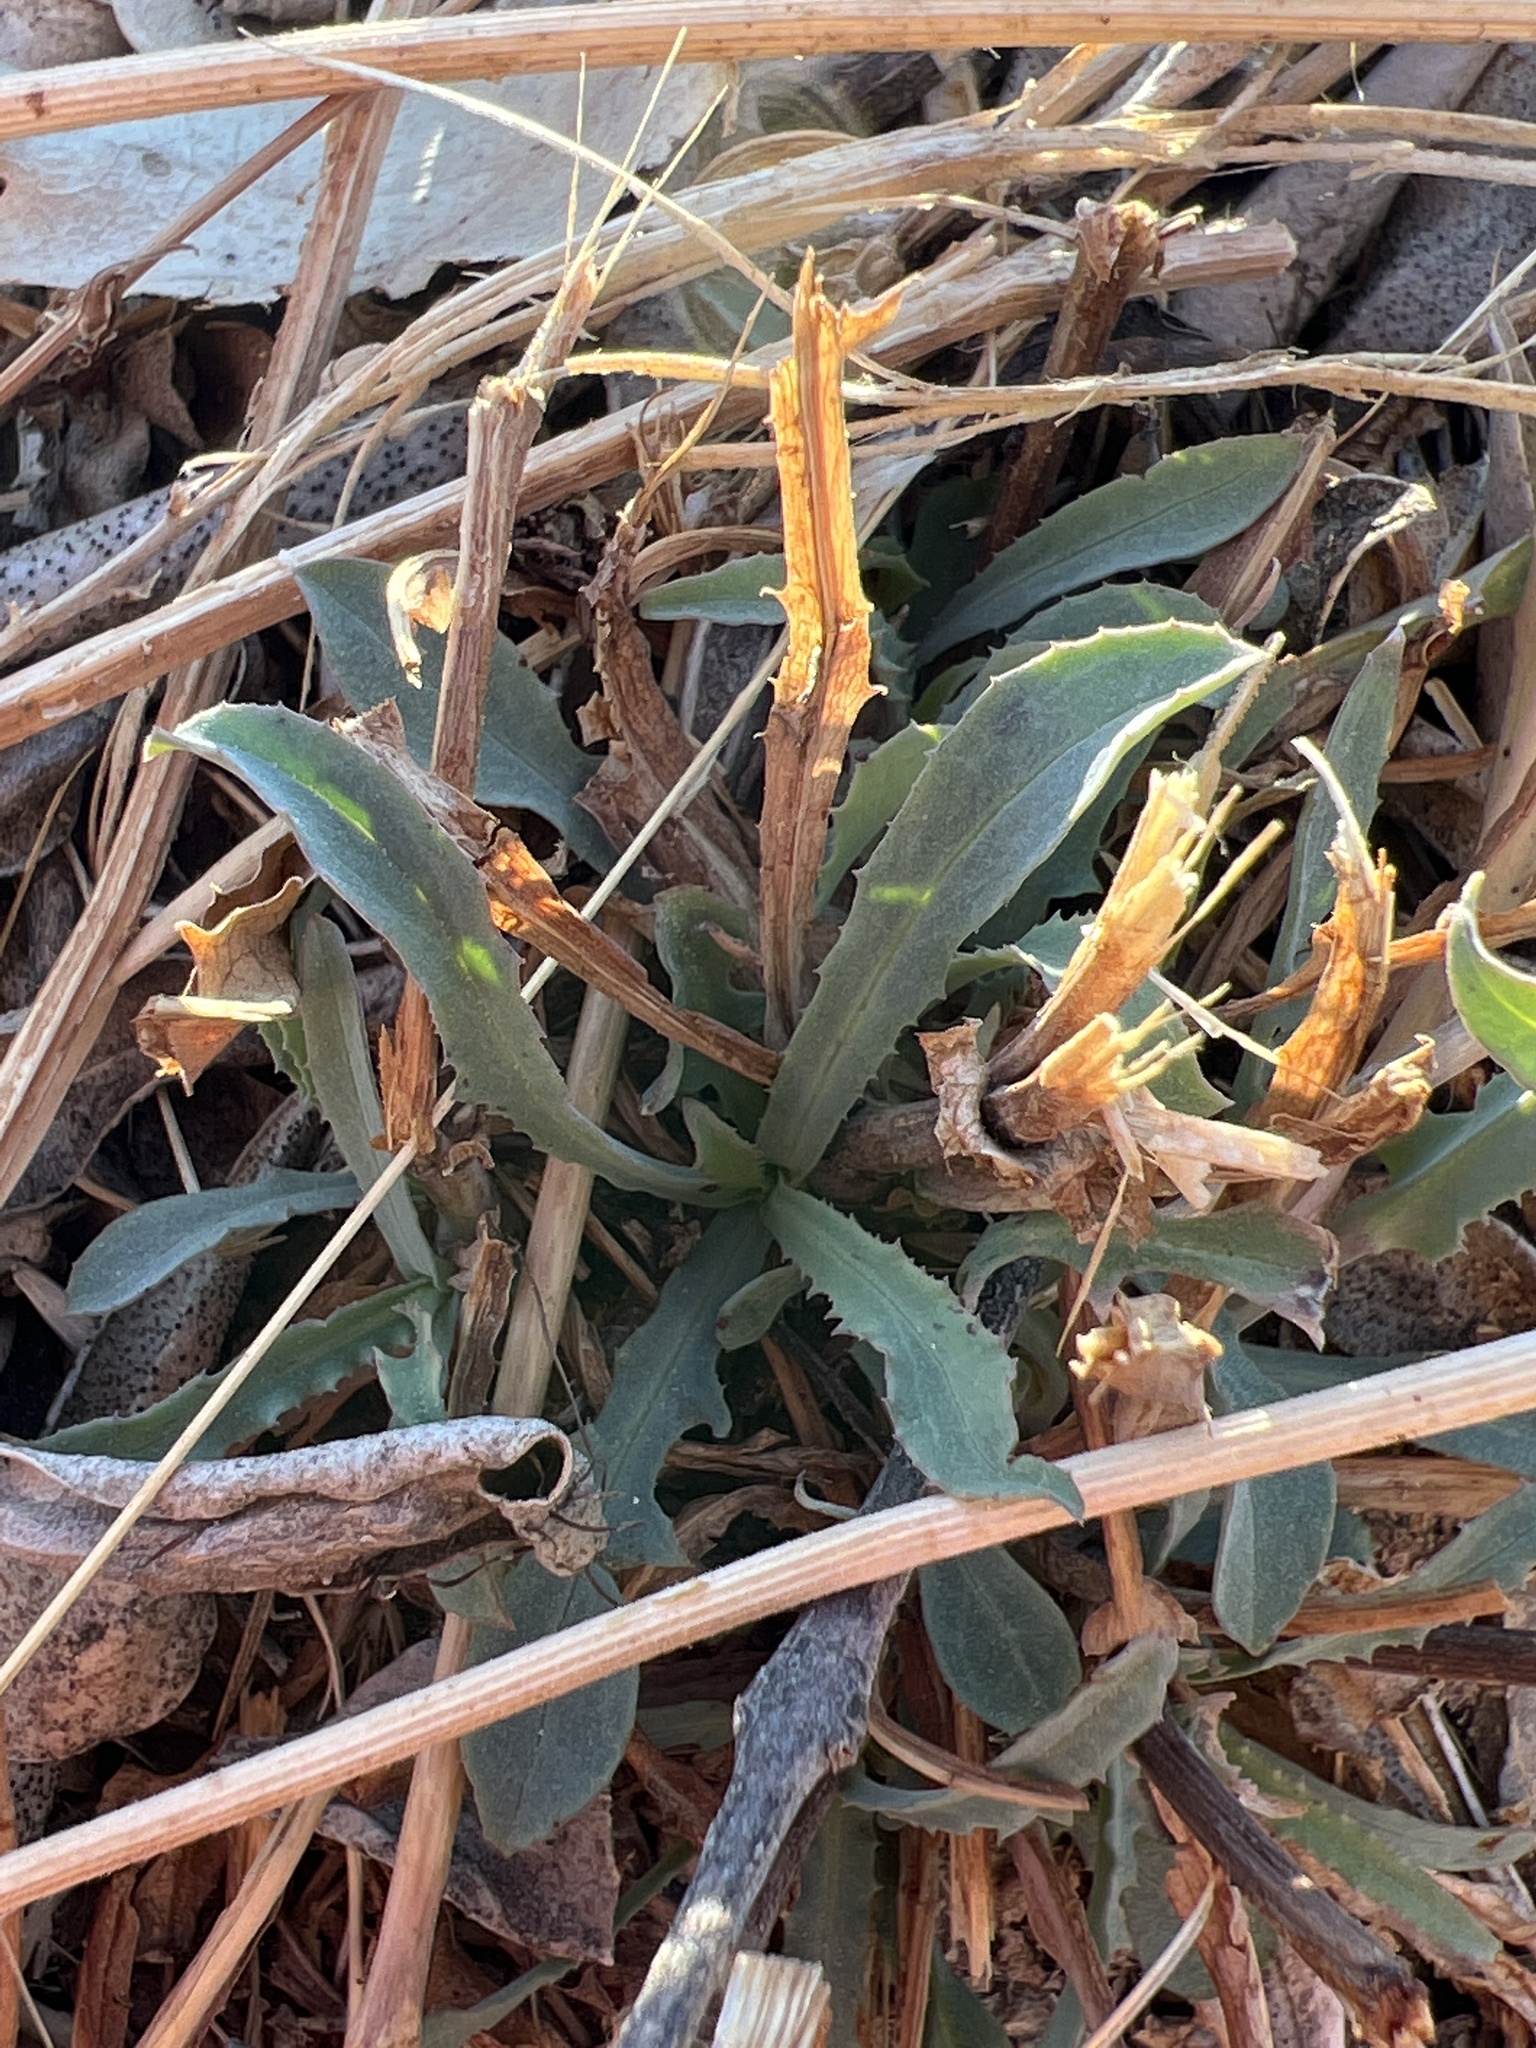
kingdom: Plantae
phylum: Tracheophyta
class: Magnoliopsida
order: Asterales
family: Asteraceae
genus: Reichardia
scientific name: Reichardia picroides
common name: Common brighteyes
